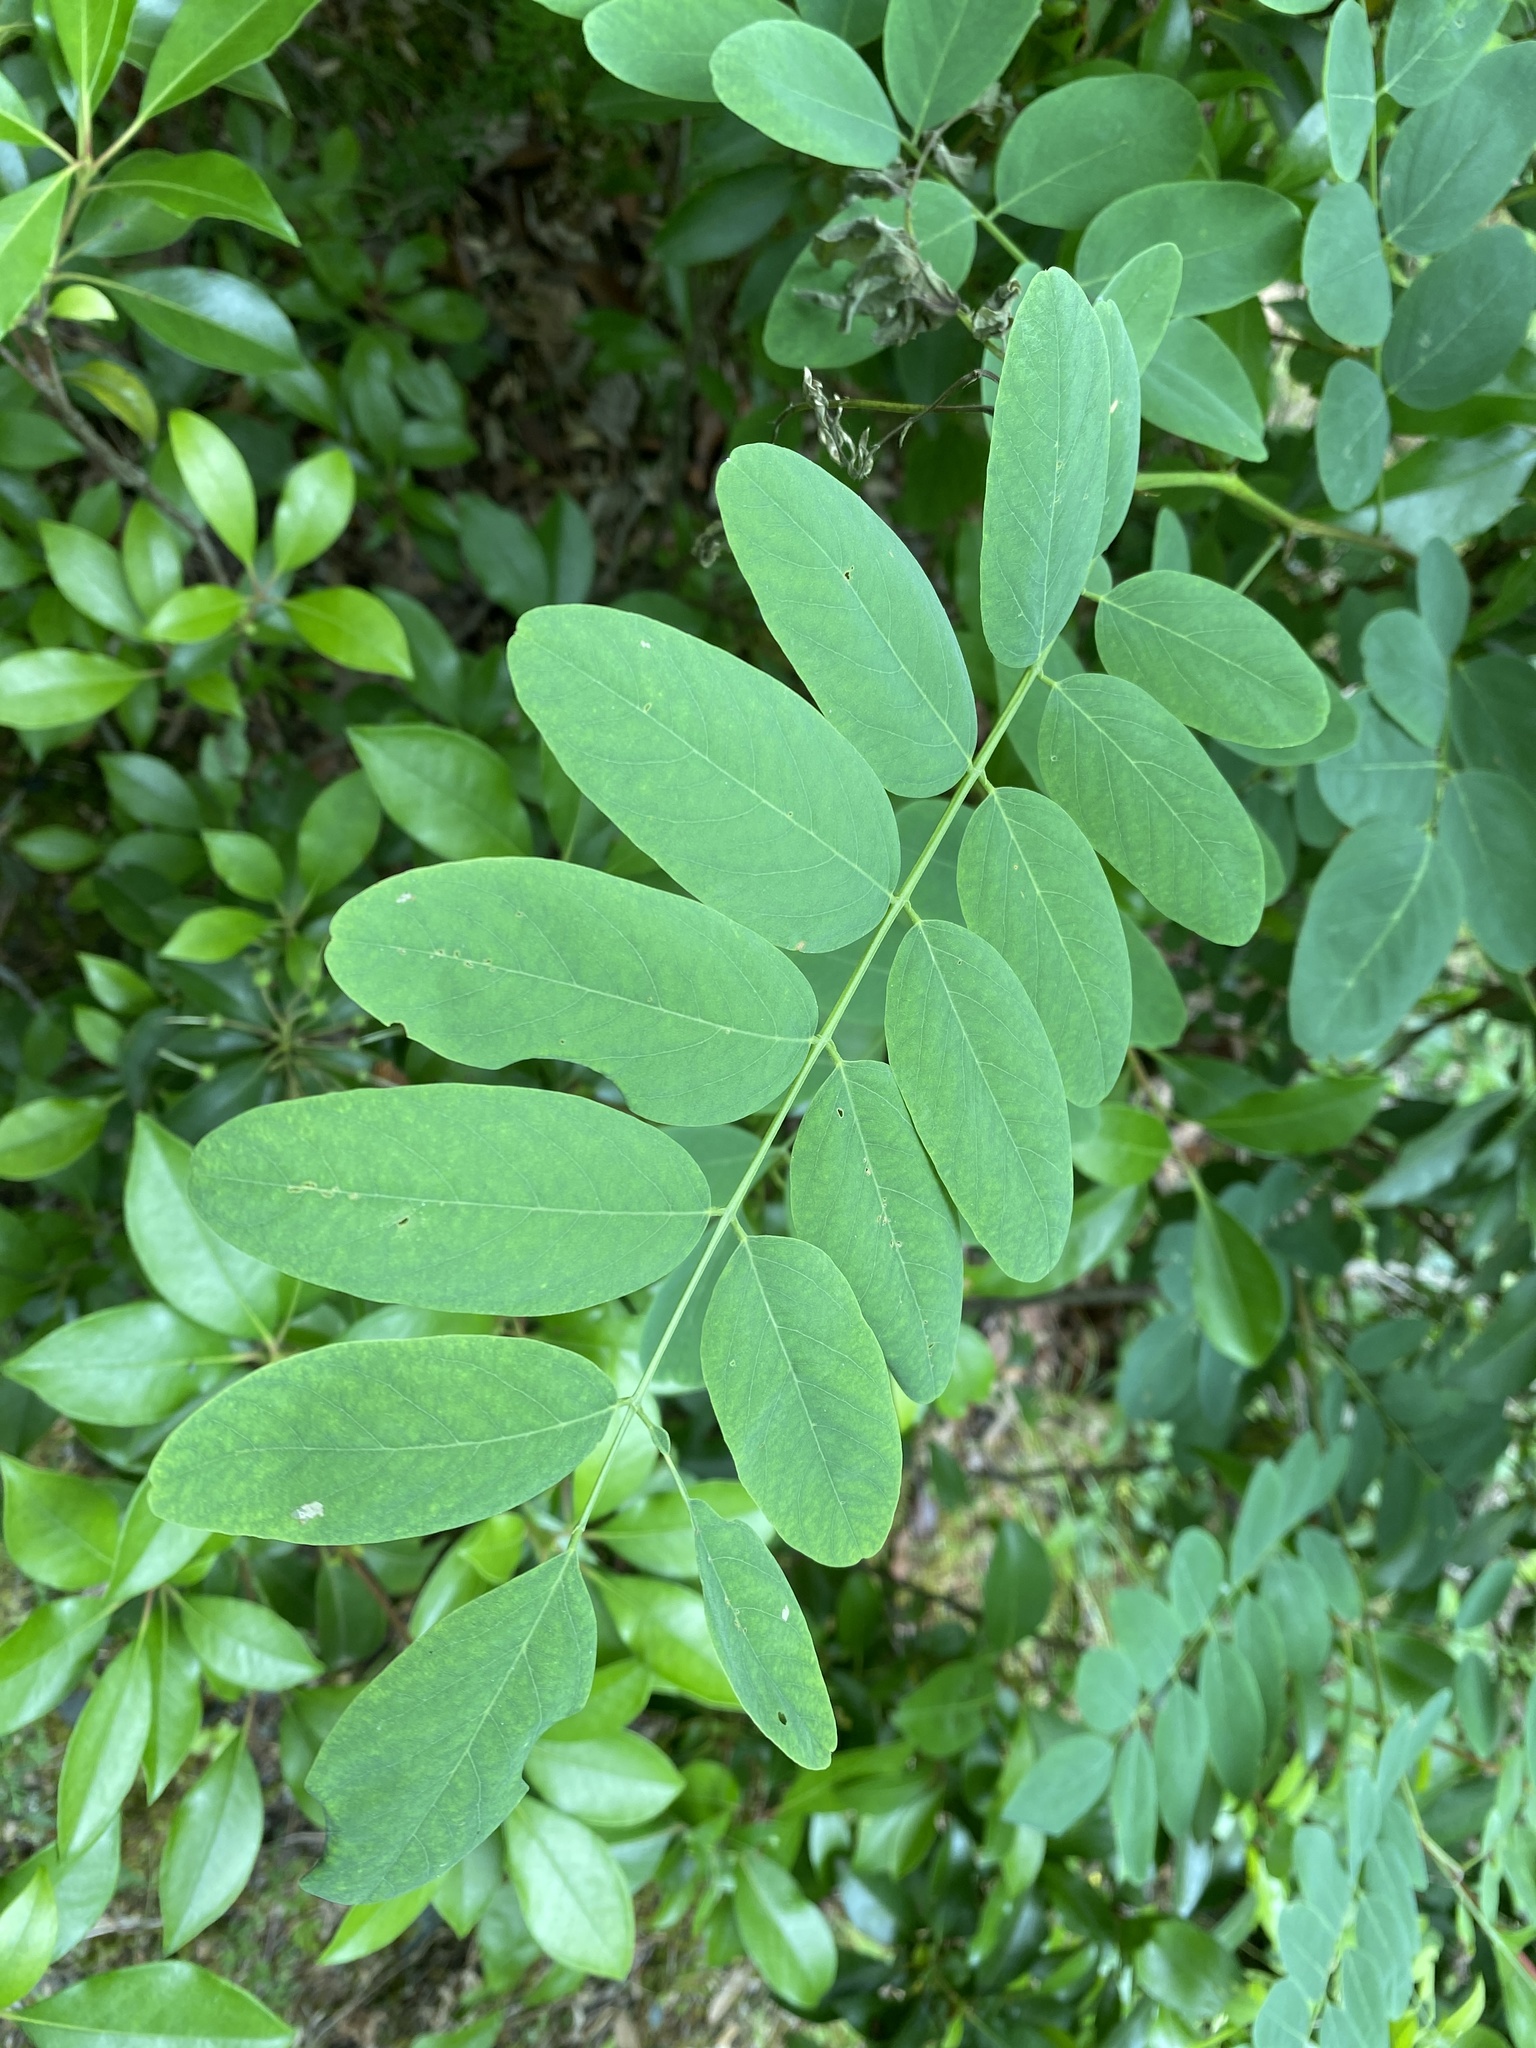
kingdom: Plantae
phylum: Tracheophyta
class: Magnoliopsida
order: Fabales
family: Fabaceae
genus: Robinia
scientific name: Robinia pseudoacacia
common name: Black locust
